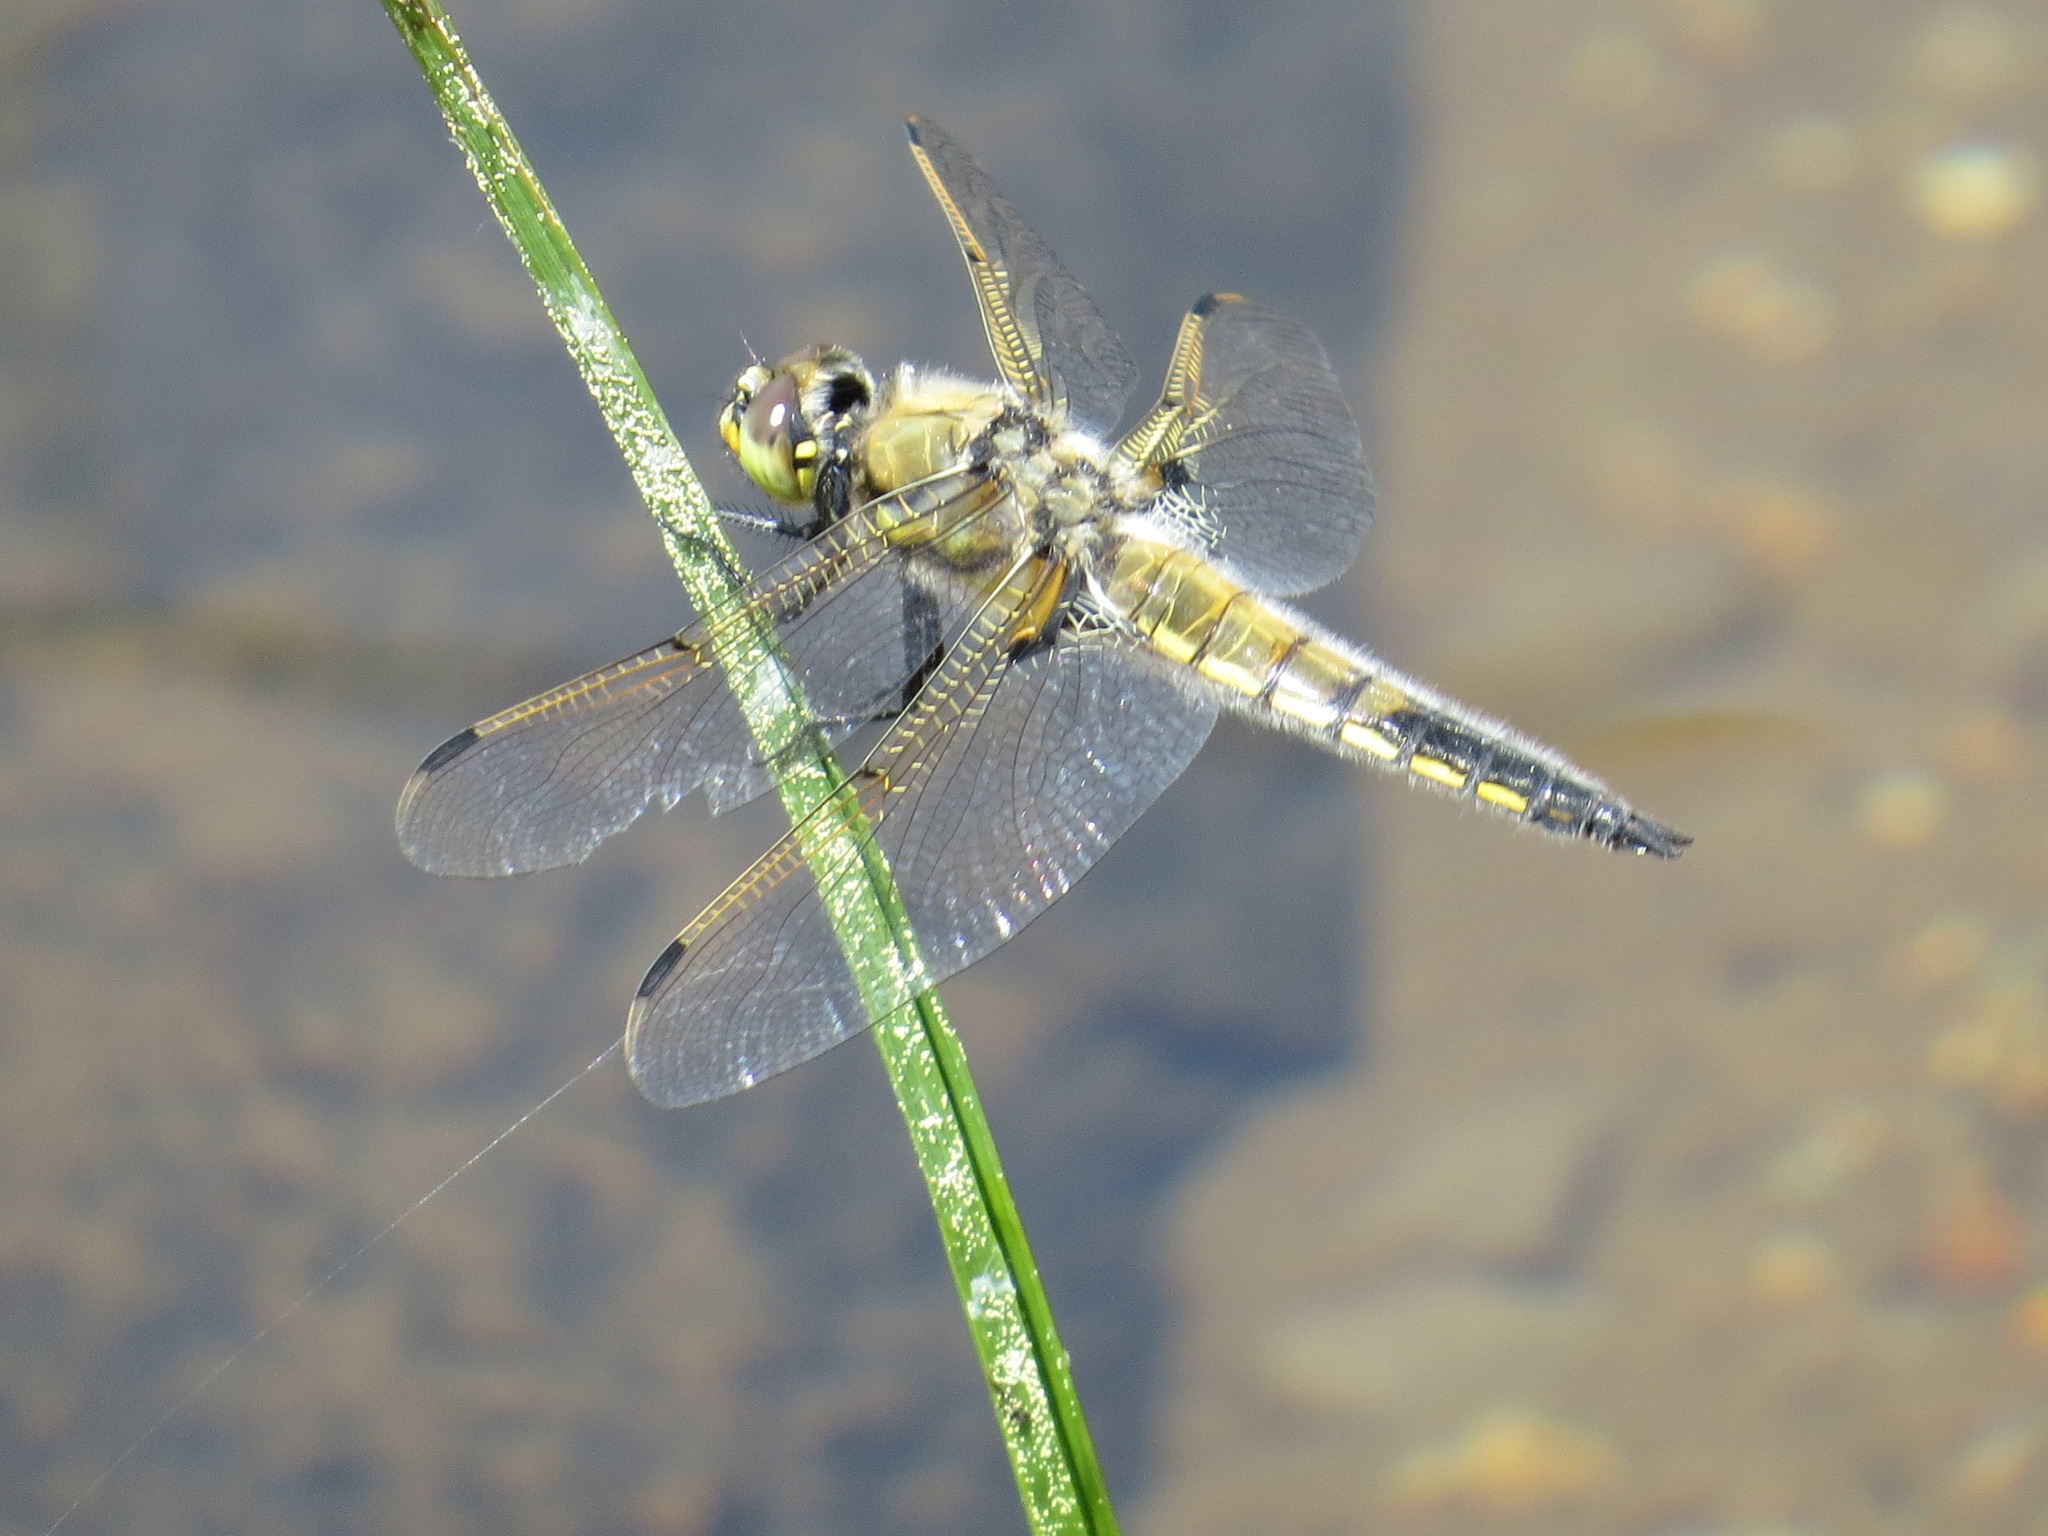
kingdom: Animalia
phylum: Arthropoda
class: Insecta
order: Odonata
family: Libellulidae
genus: Libellula
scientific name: Libellula quadrimaculata
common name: Four-spotted chaser
